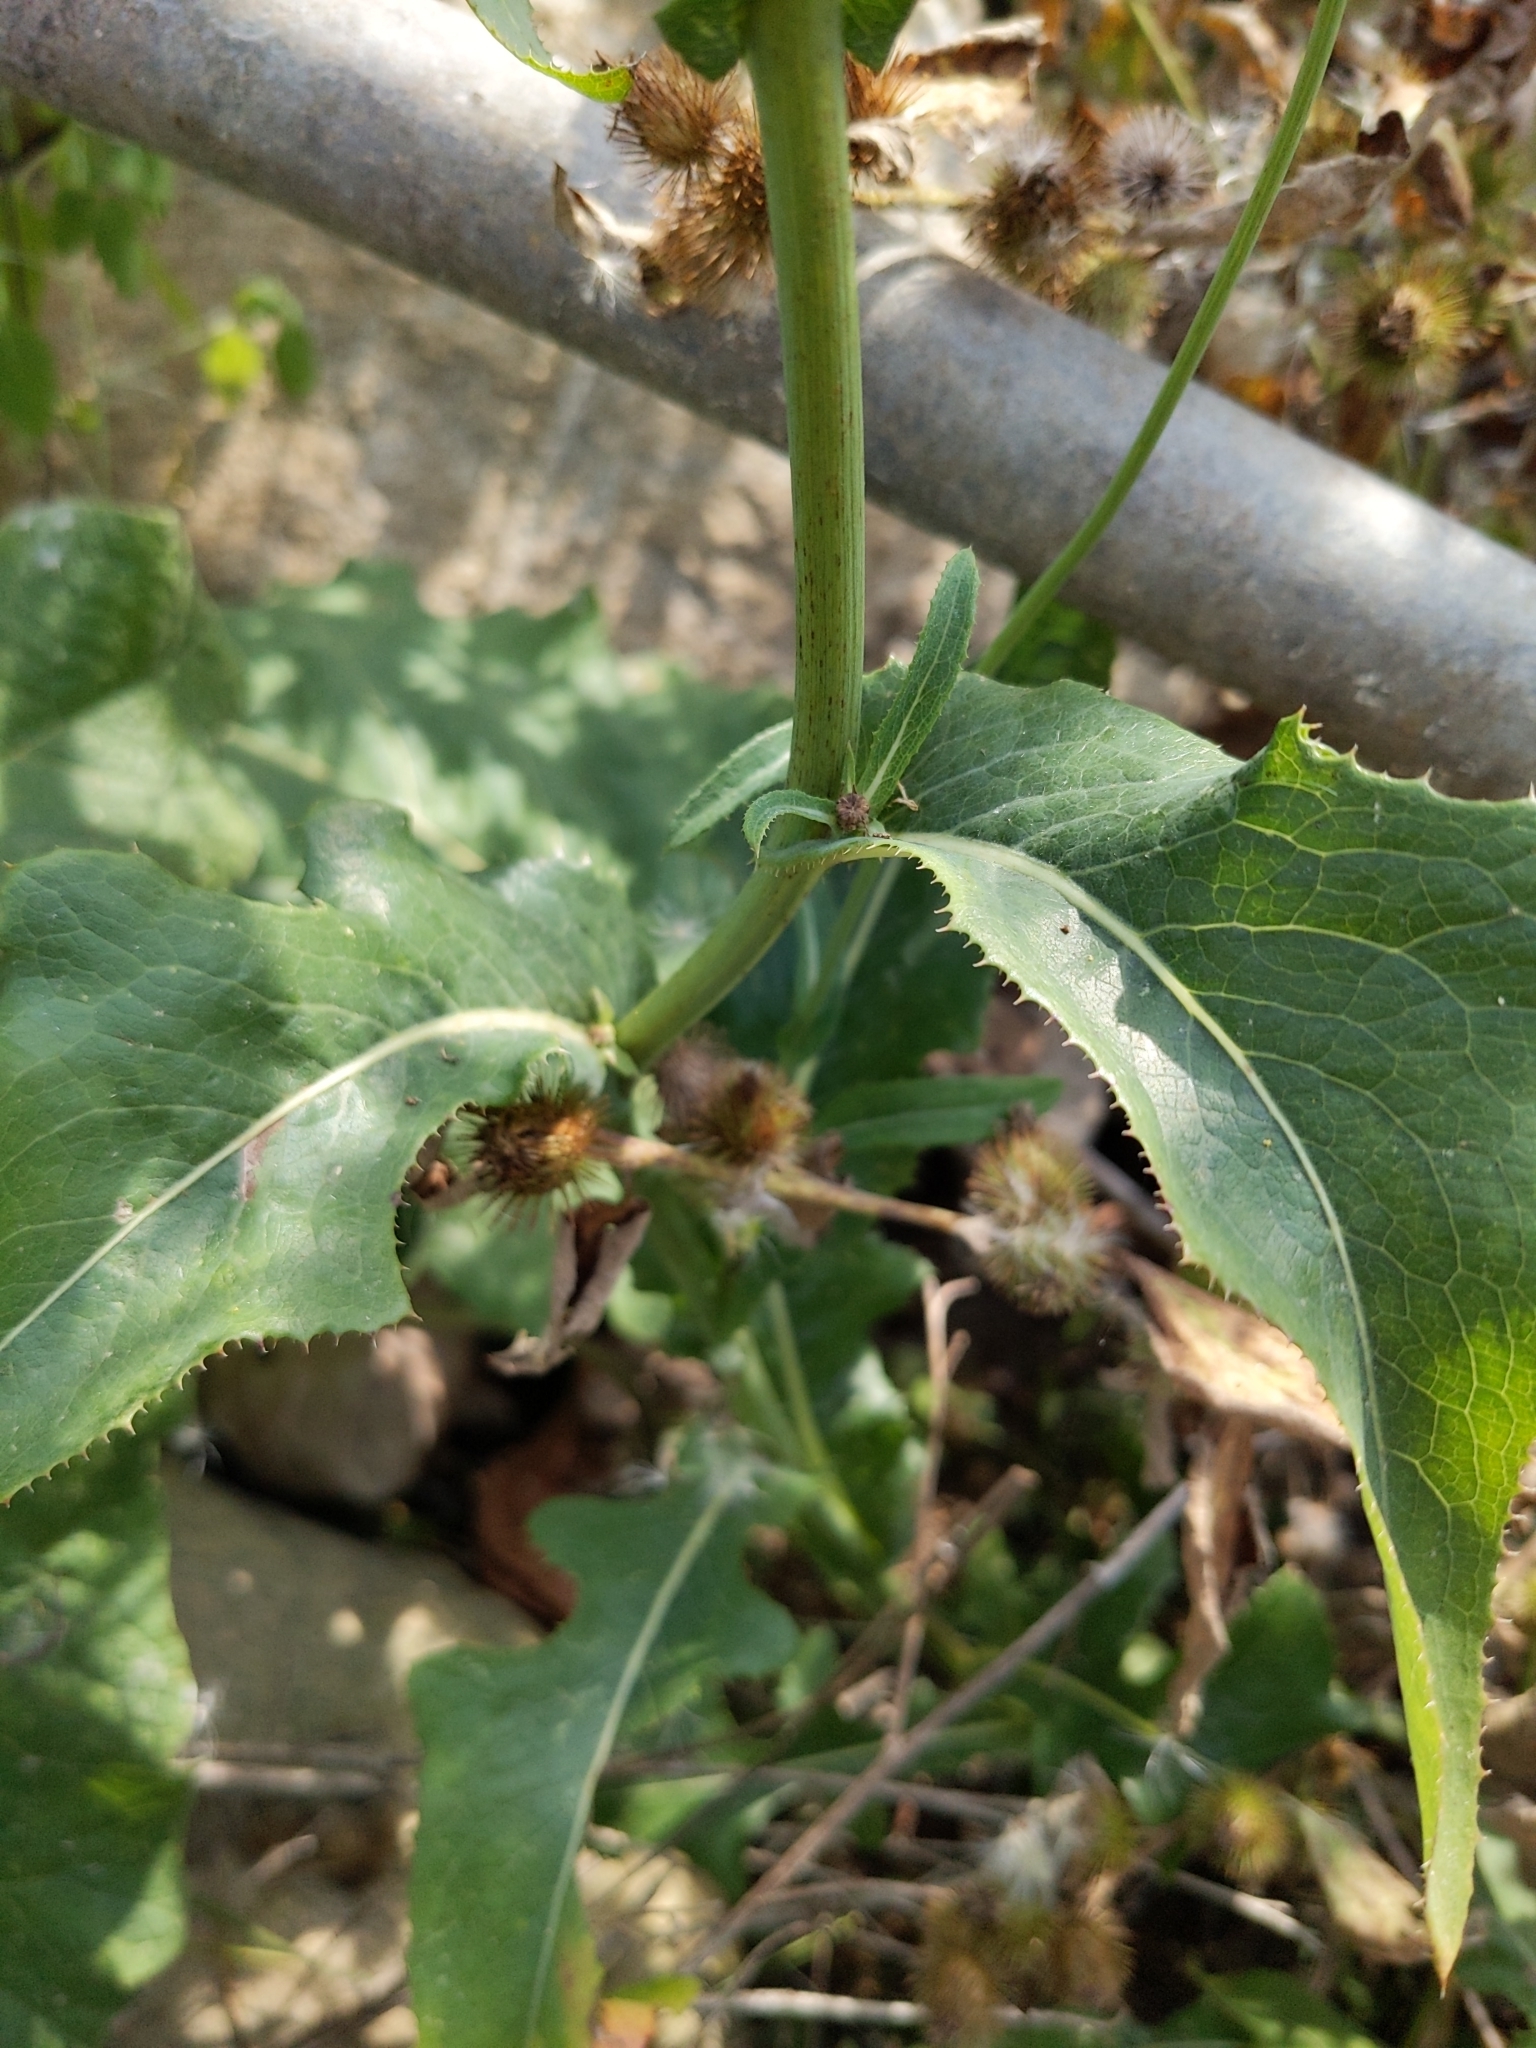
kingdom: Plantae
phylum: Tracheophyta
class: Magnoliopsida
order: Asterales
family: Asteraceae
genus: Sonchus
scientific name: Sonchus arvensis
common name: Perennial sow-thistle
